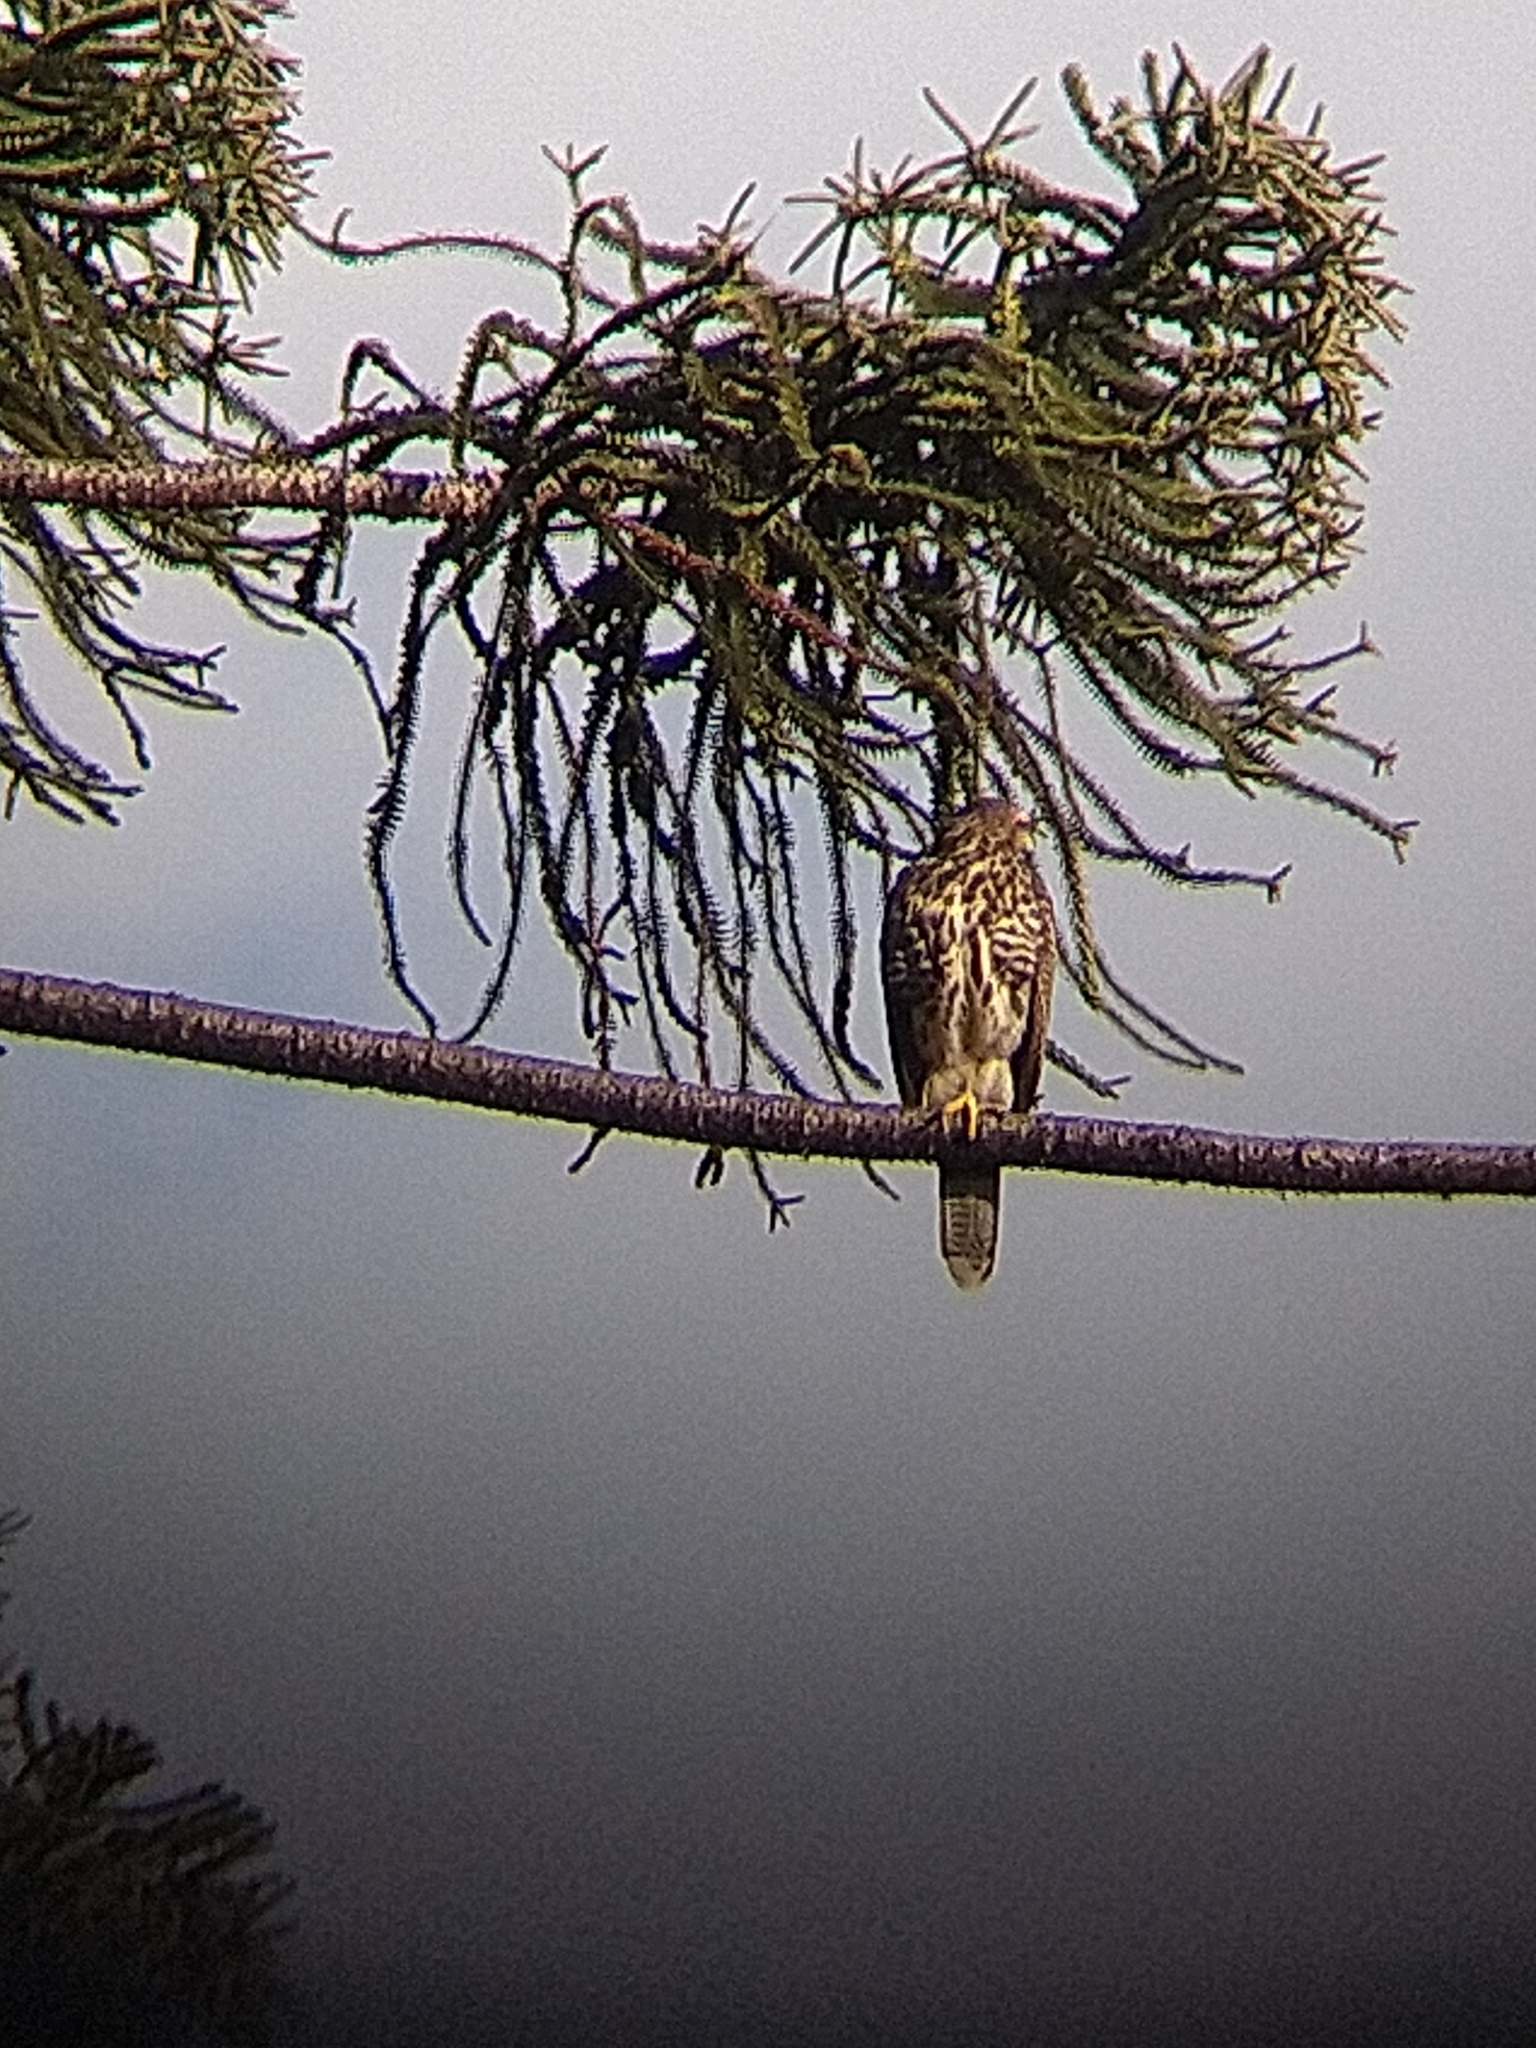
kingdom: Animalia
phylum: Chordata
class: Aves
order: Accipitriformes
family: Accipitridae
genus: Parabuteo
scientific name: Parabuteo unicinctus
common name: Harris's hawk
